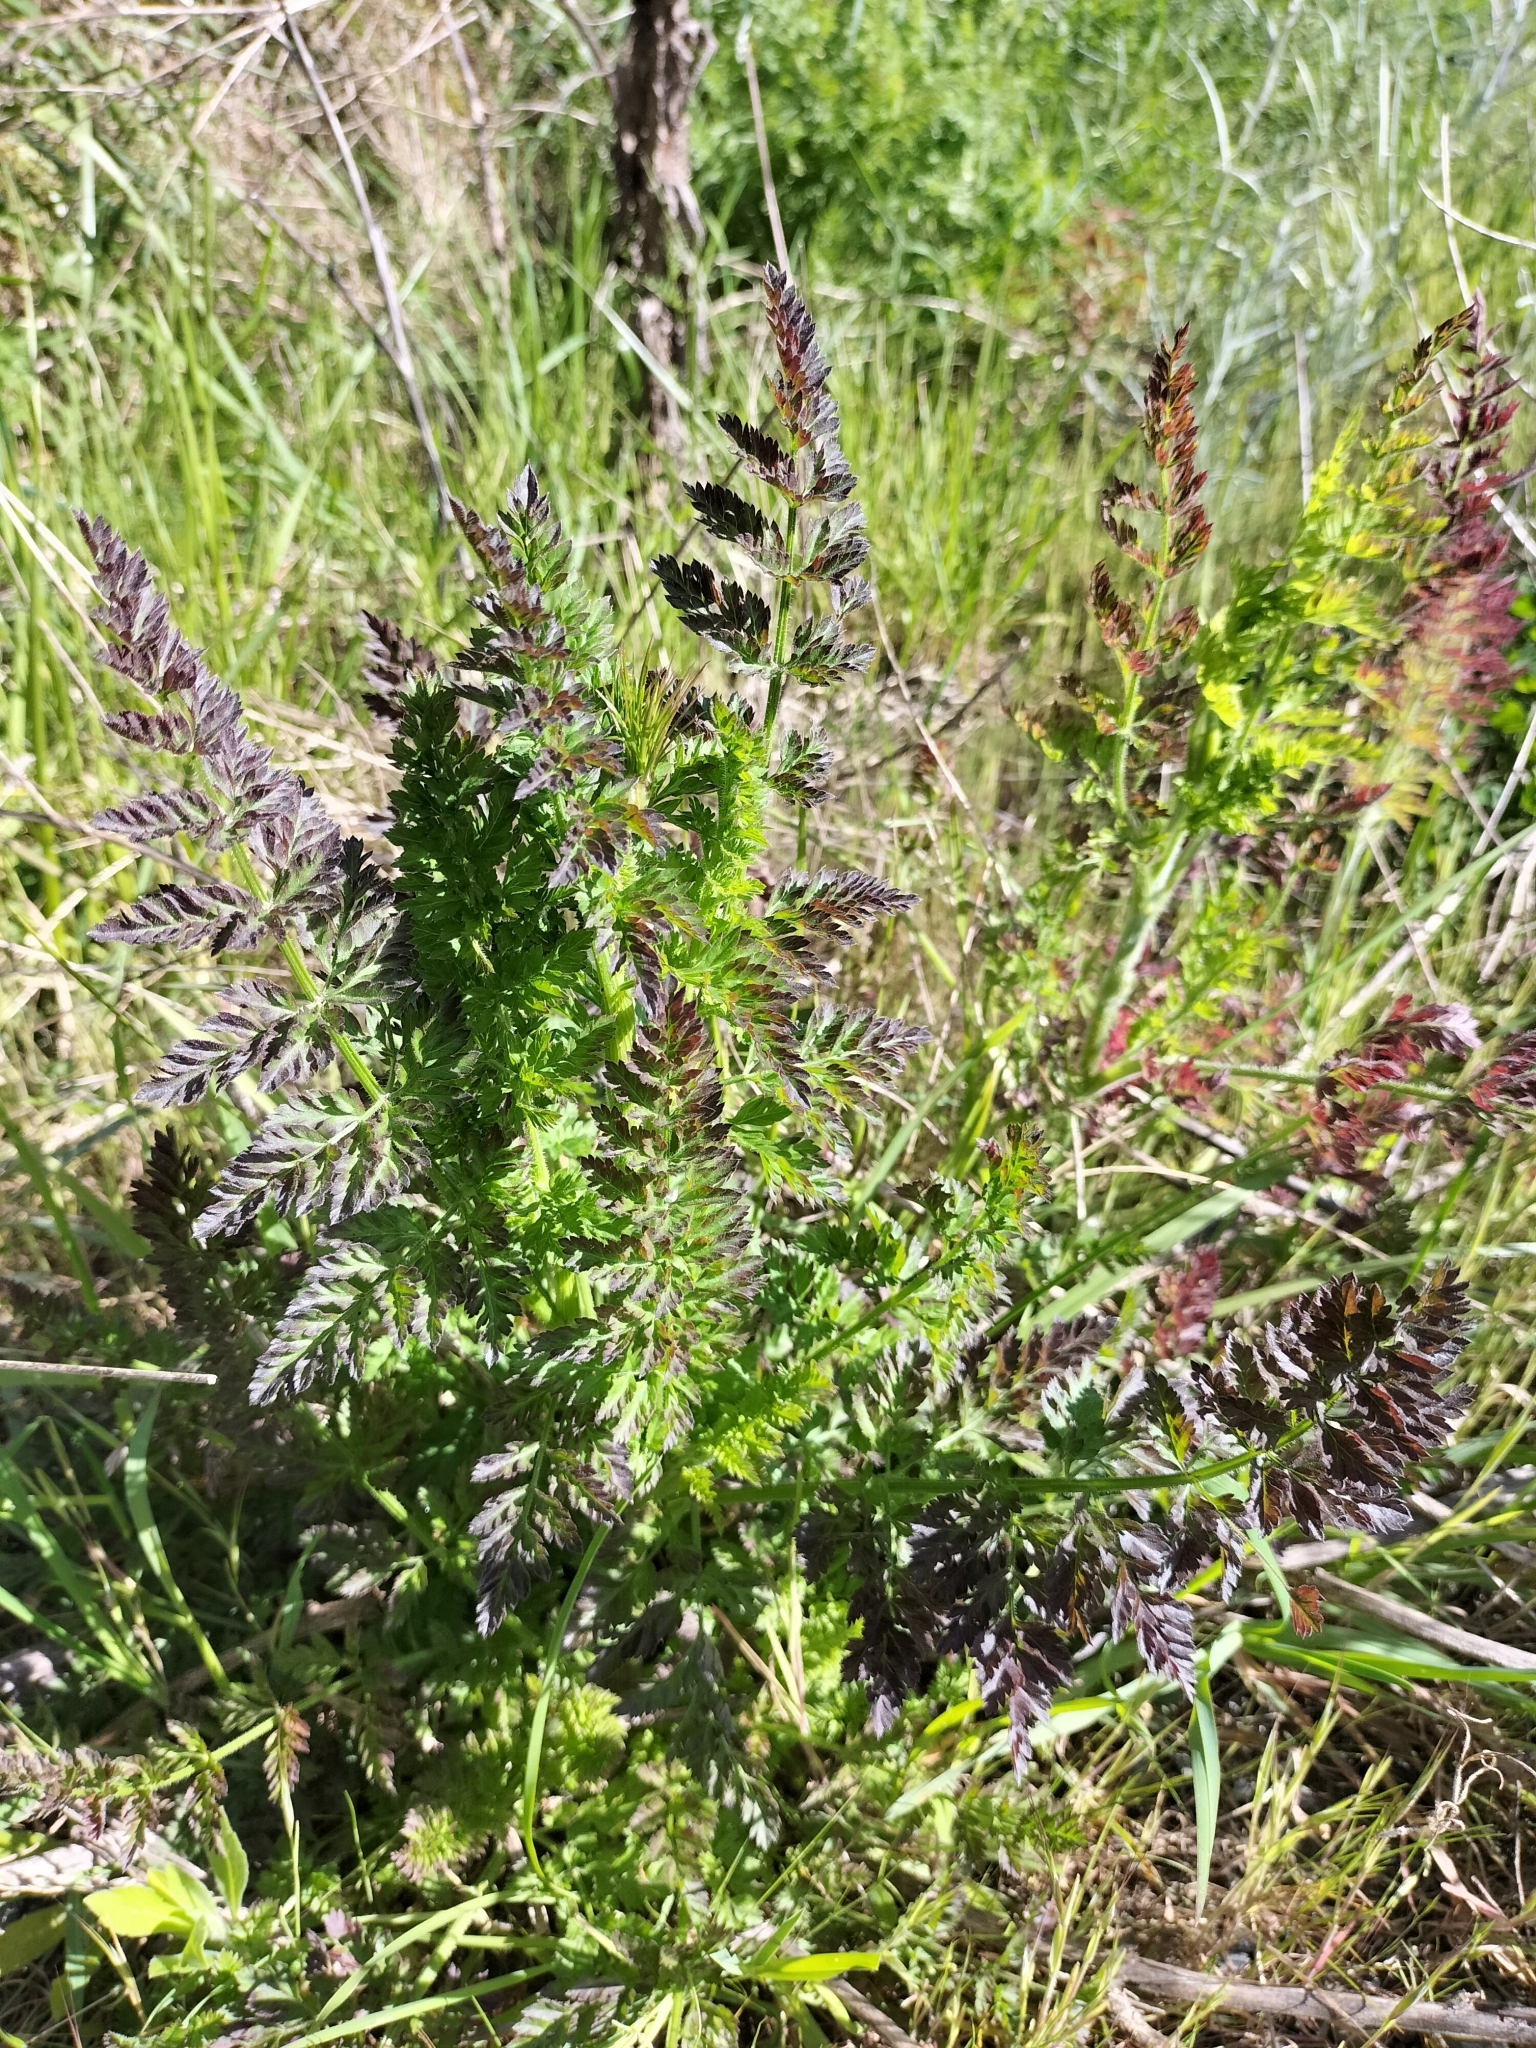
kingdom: Plantae
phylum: Tracheophyta
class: Magnoliopsida
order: Apiales
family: Apiaceae
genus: Daucus
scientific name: Daucus carota
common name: Wild carrot
